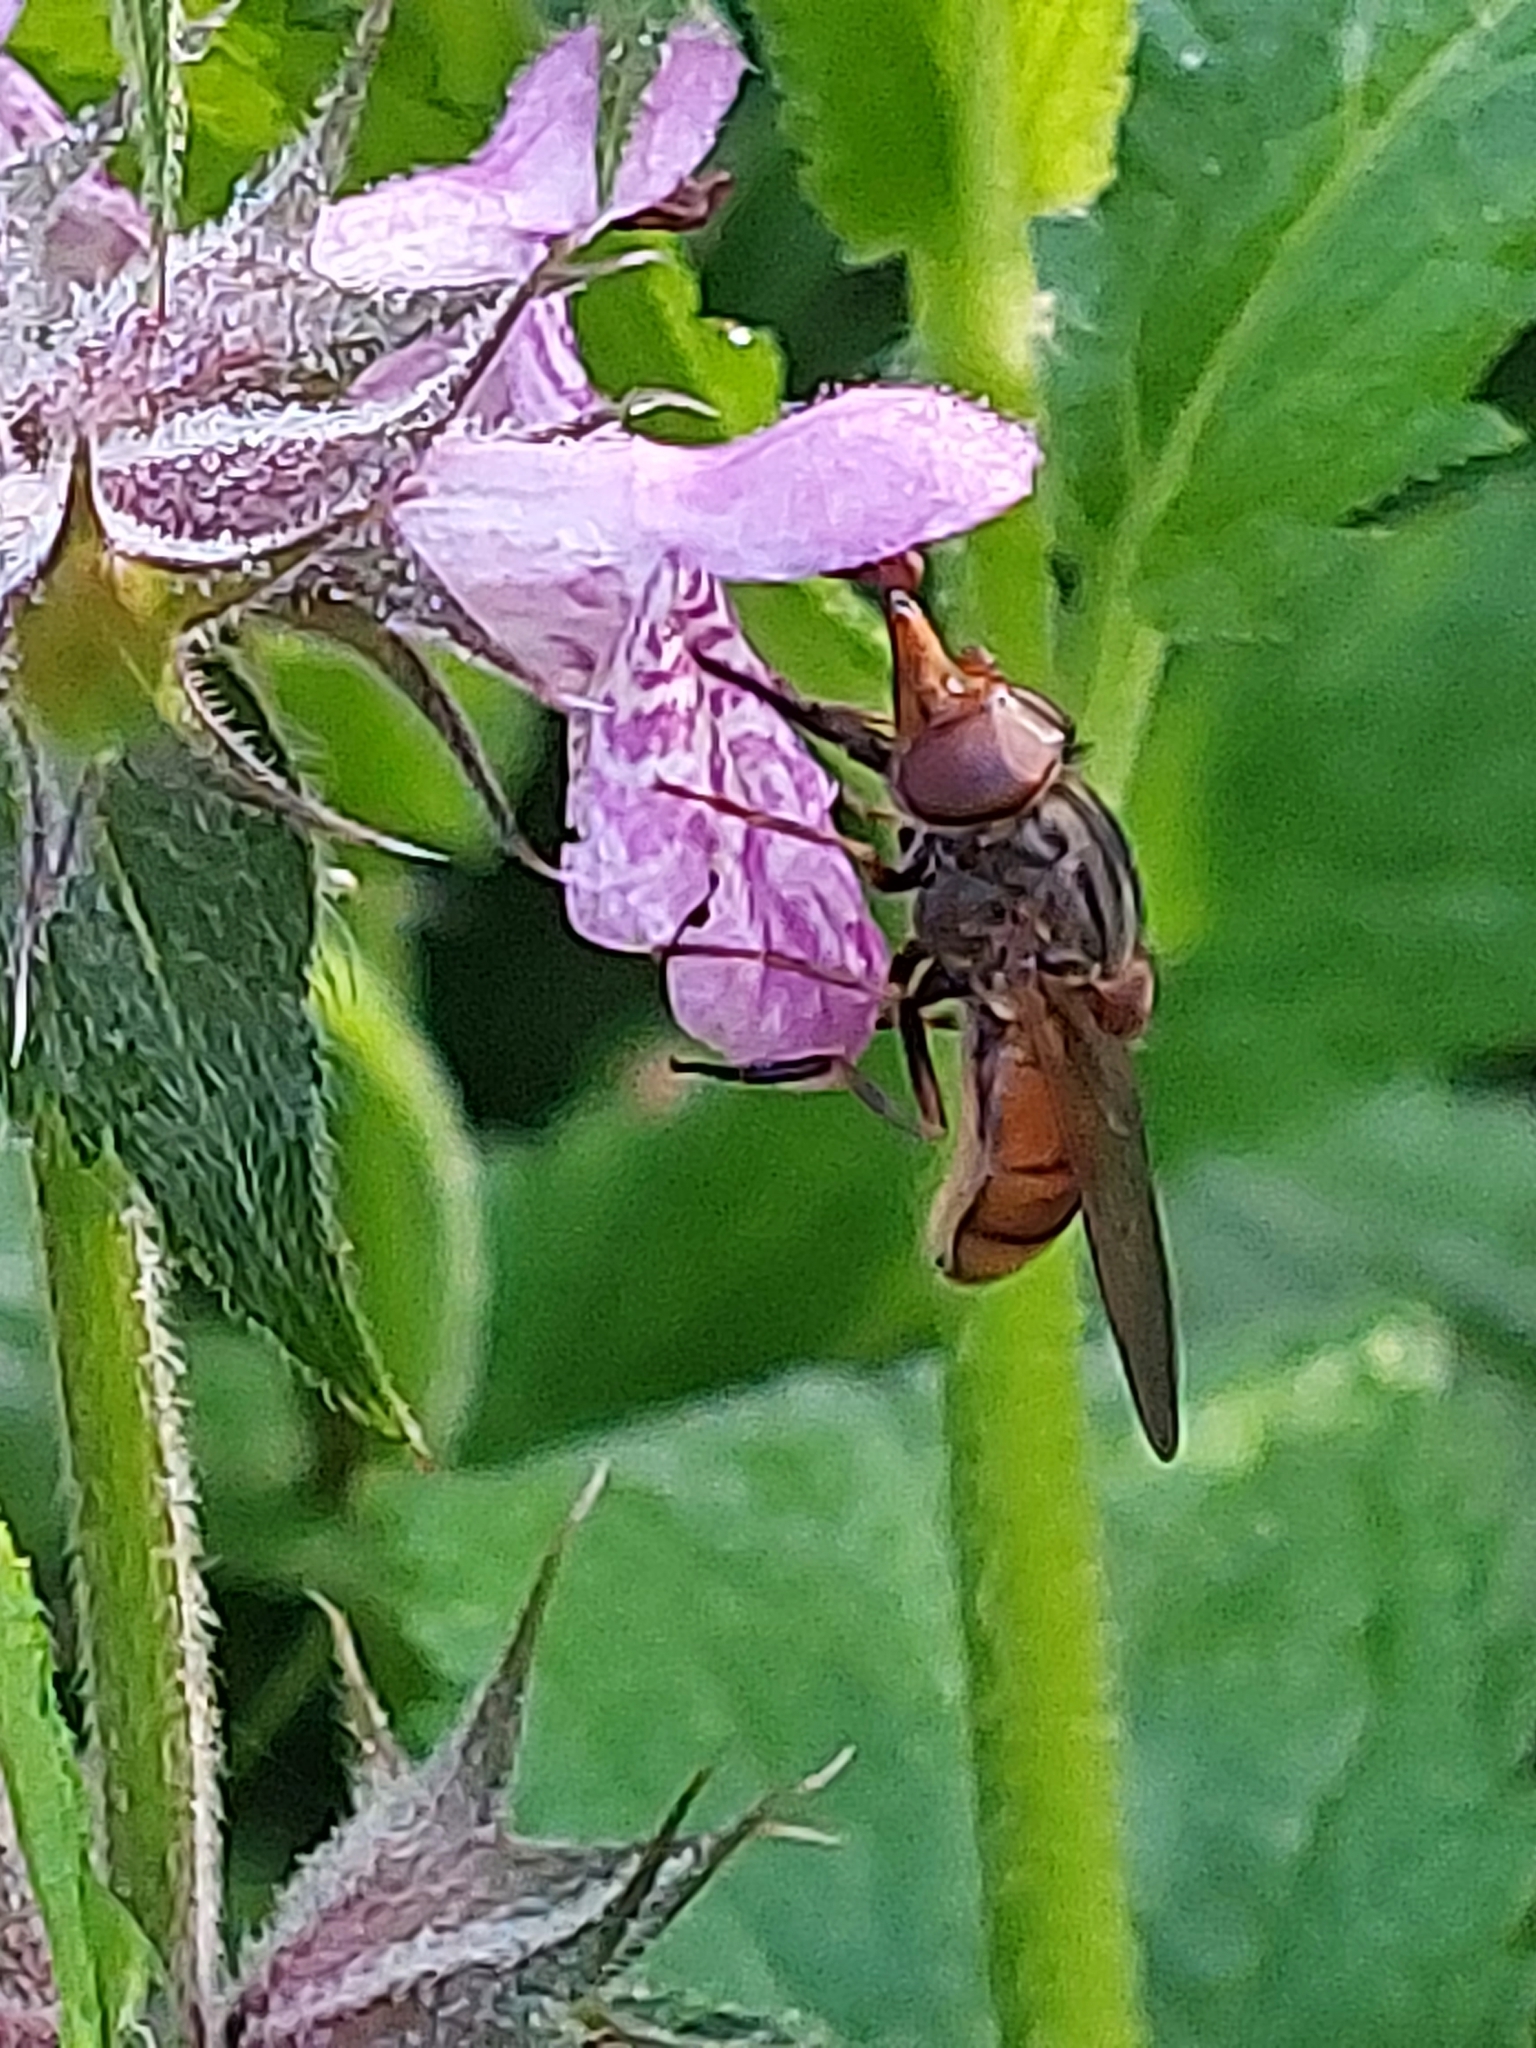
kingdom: Animalia
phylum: Arthropoda
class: Insecta
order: Diptera
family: Syrphidae
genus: Rhingia
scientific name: Rhingia campestris
